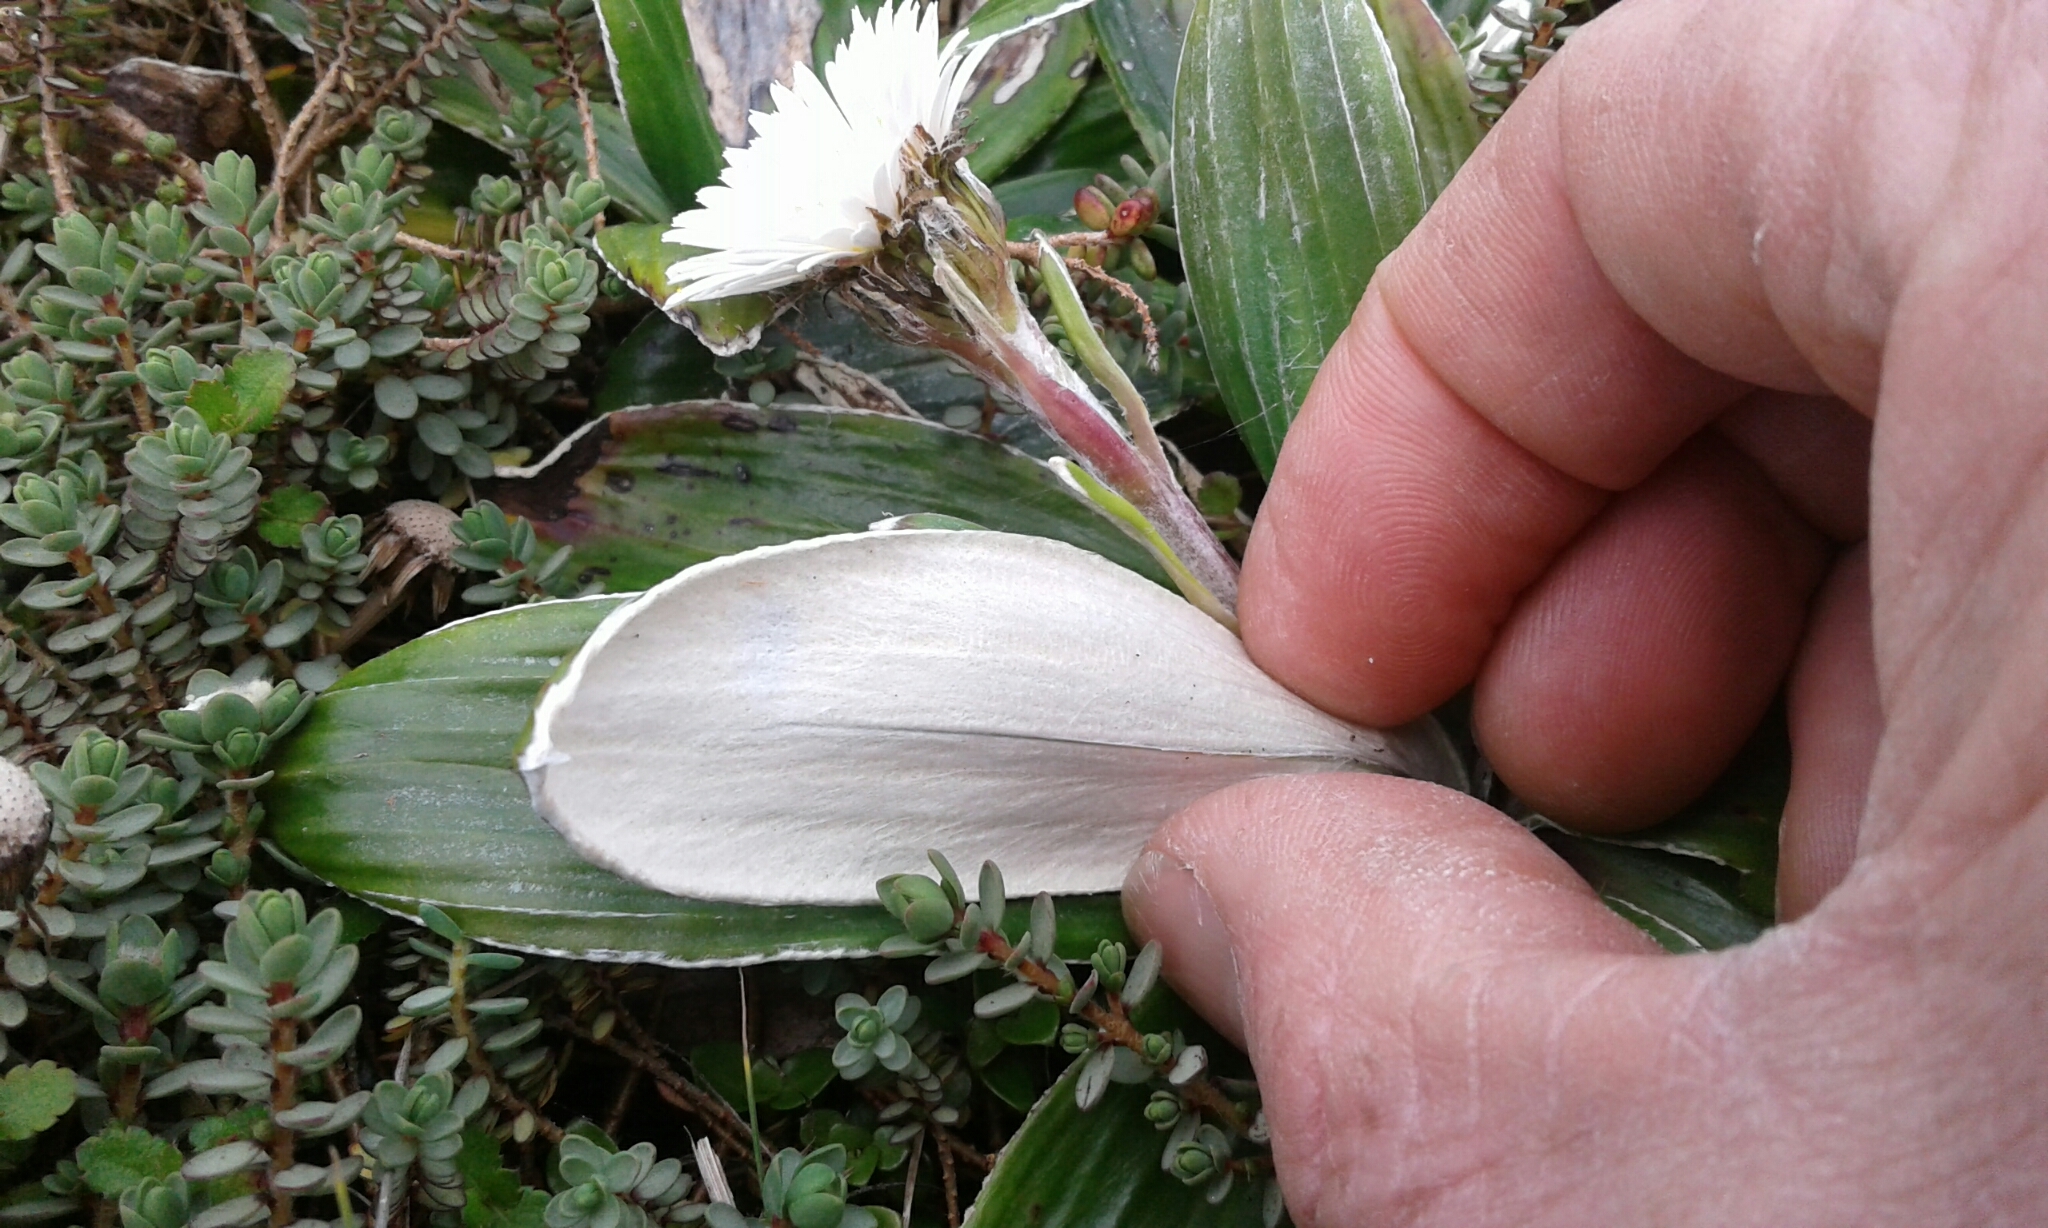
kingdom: Plantae
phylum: Tracheophyta
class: Magnoliopsida
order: Asterales
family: Asteraceae
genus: Celmisia
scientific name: Celmisia
